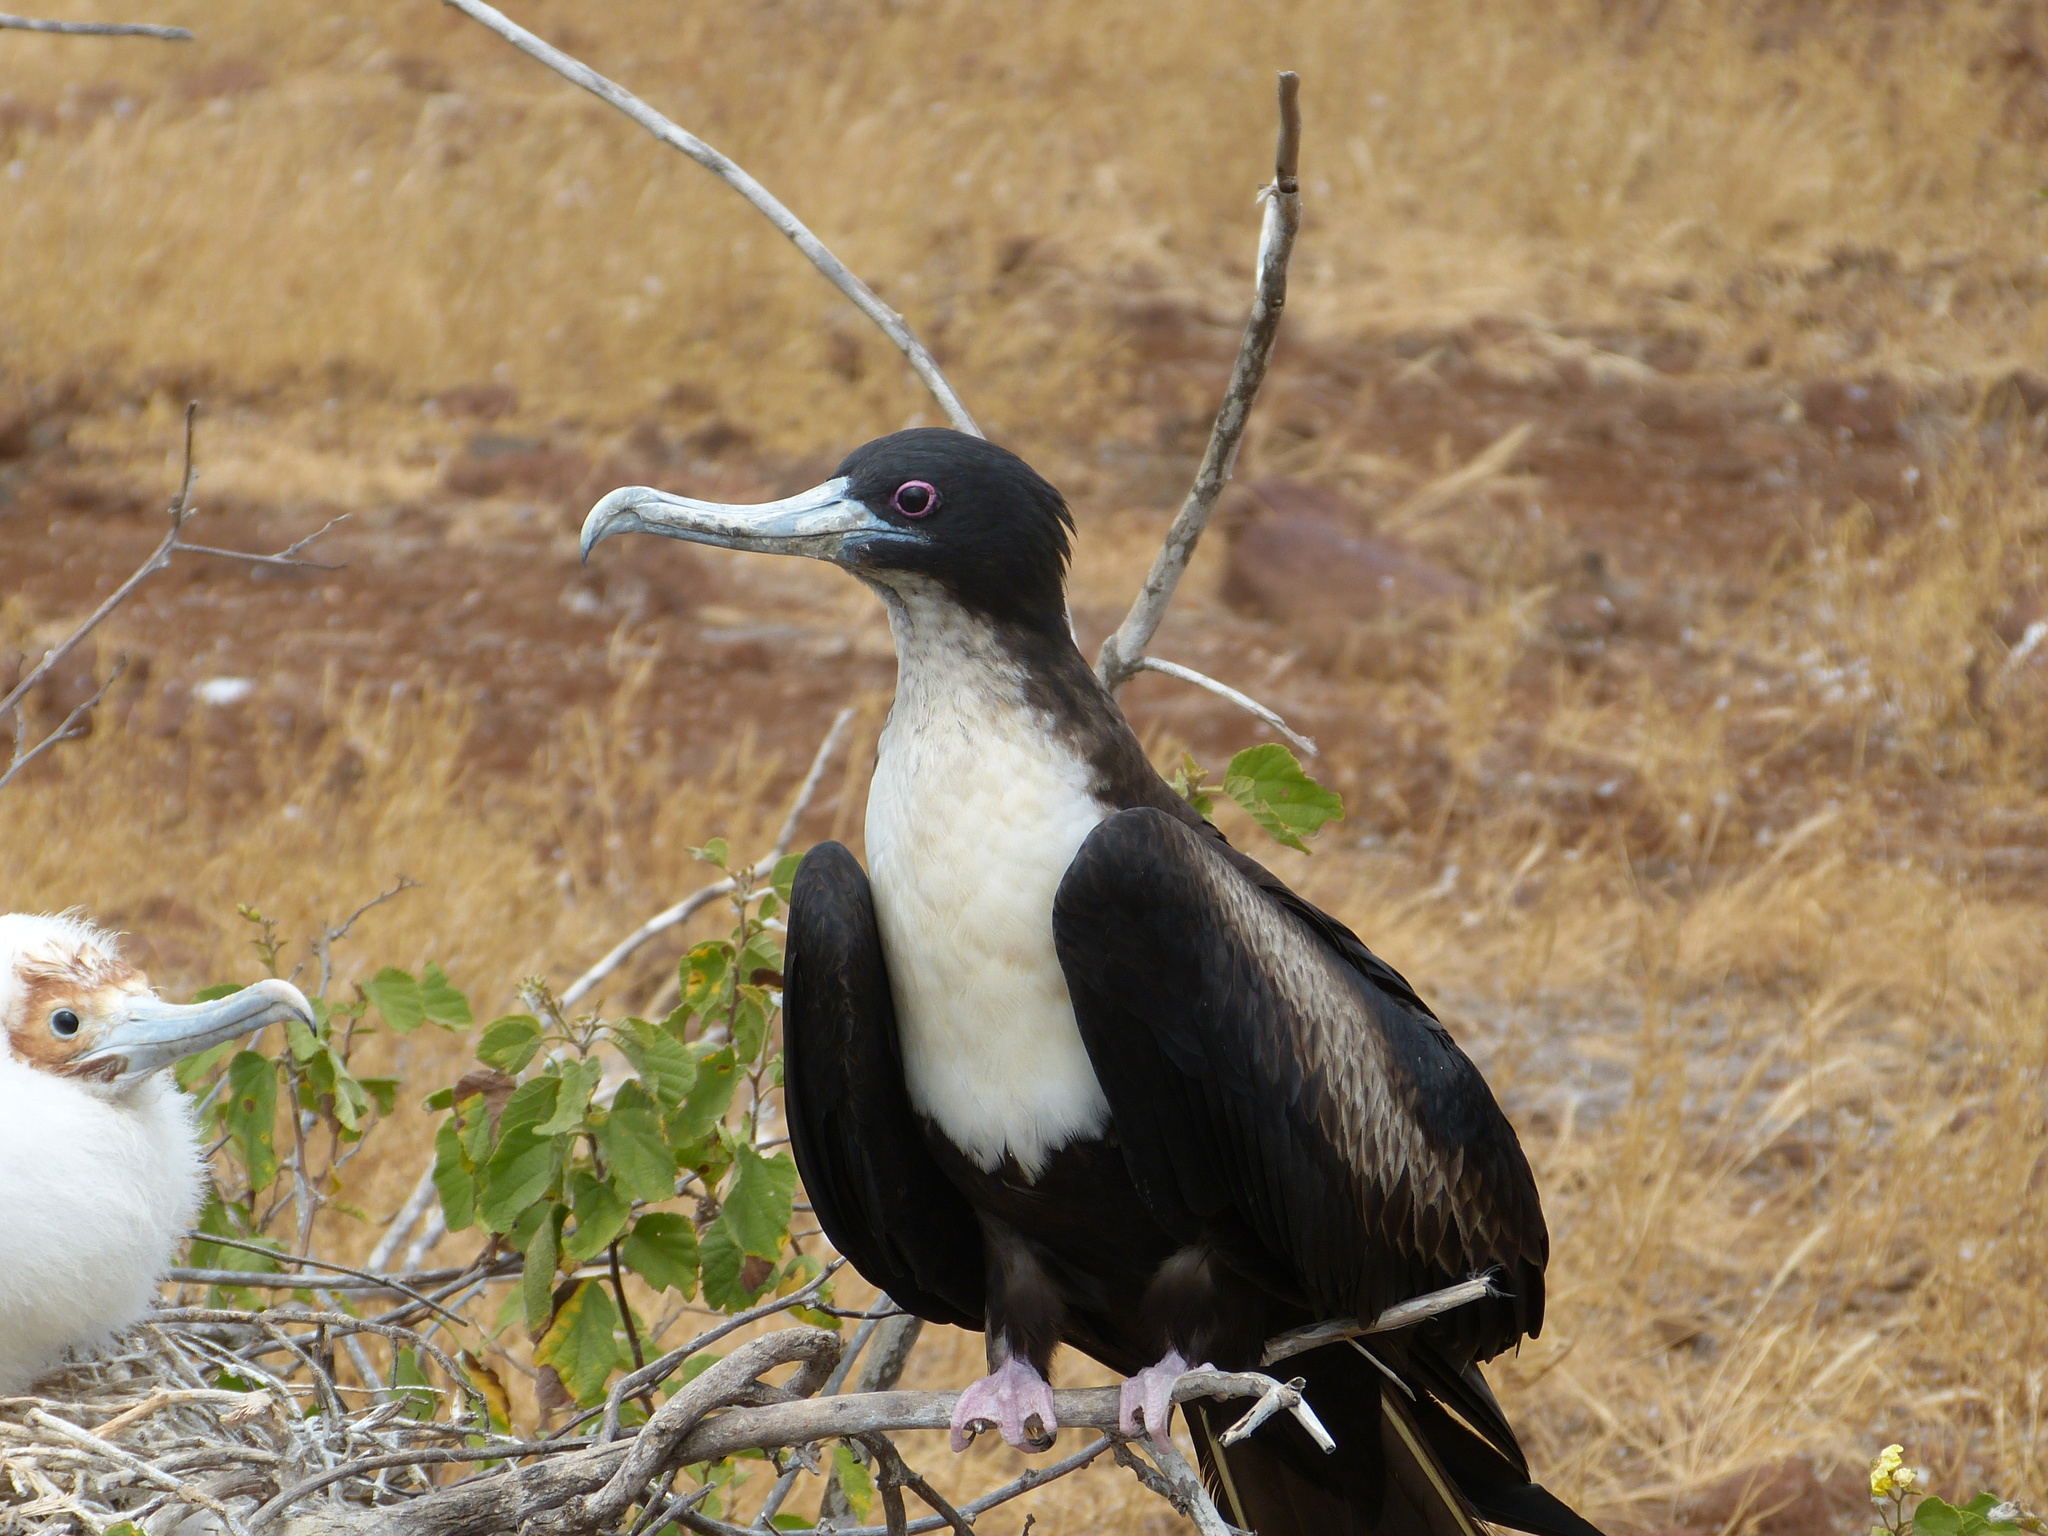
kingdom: Animalia
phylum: Chordata
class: Aves
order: Suliformes
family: Fregatidae
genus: Fregata
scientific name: Fregata minor
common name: Great frigatebird
